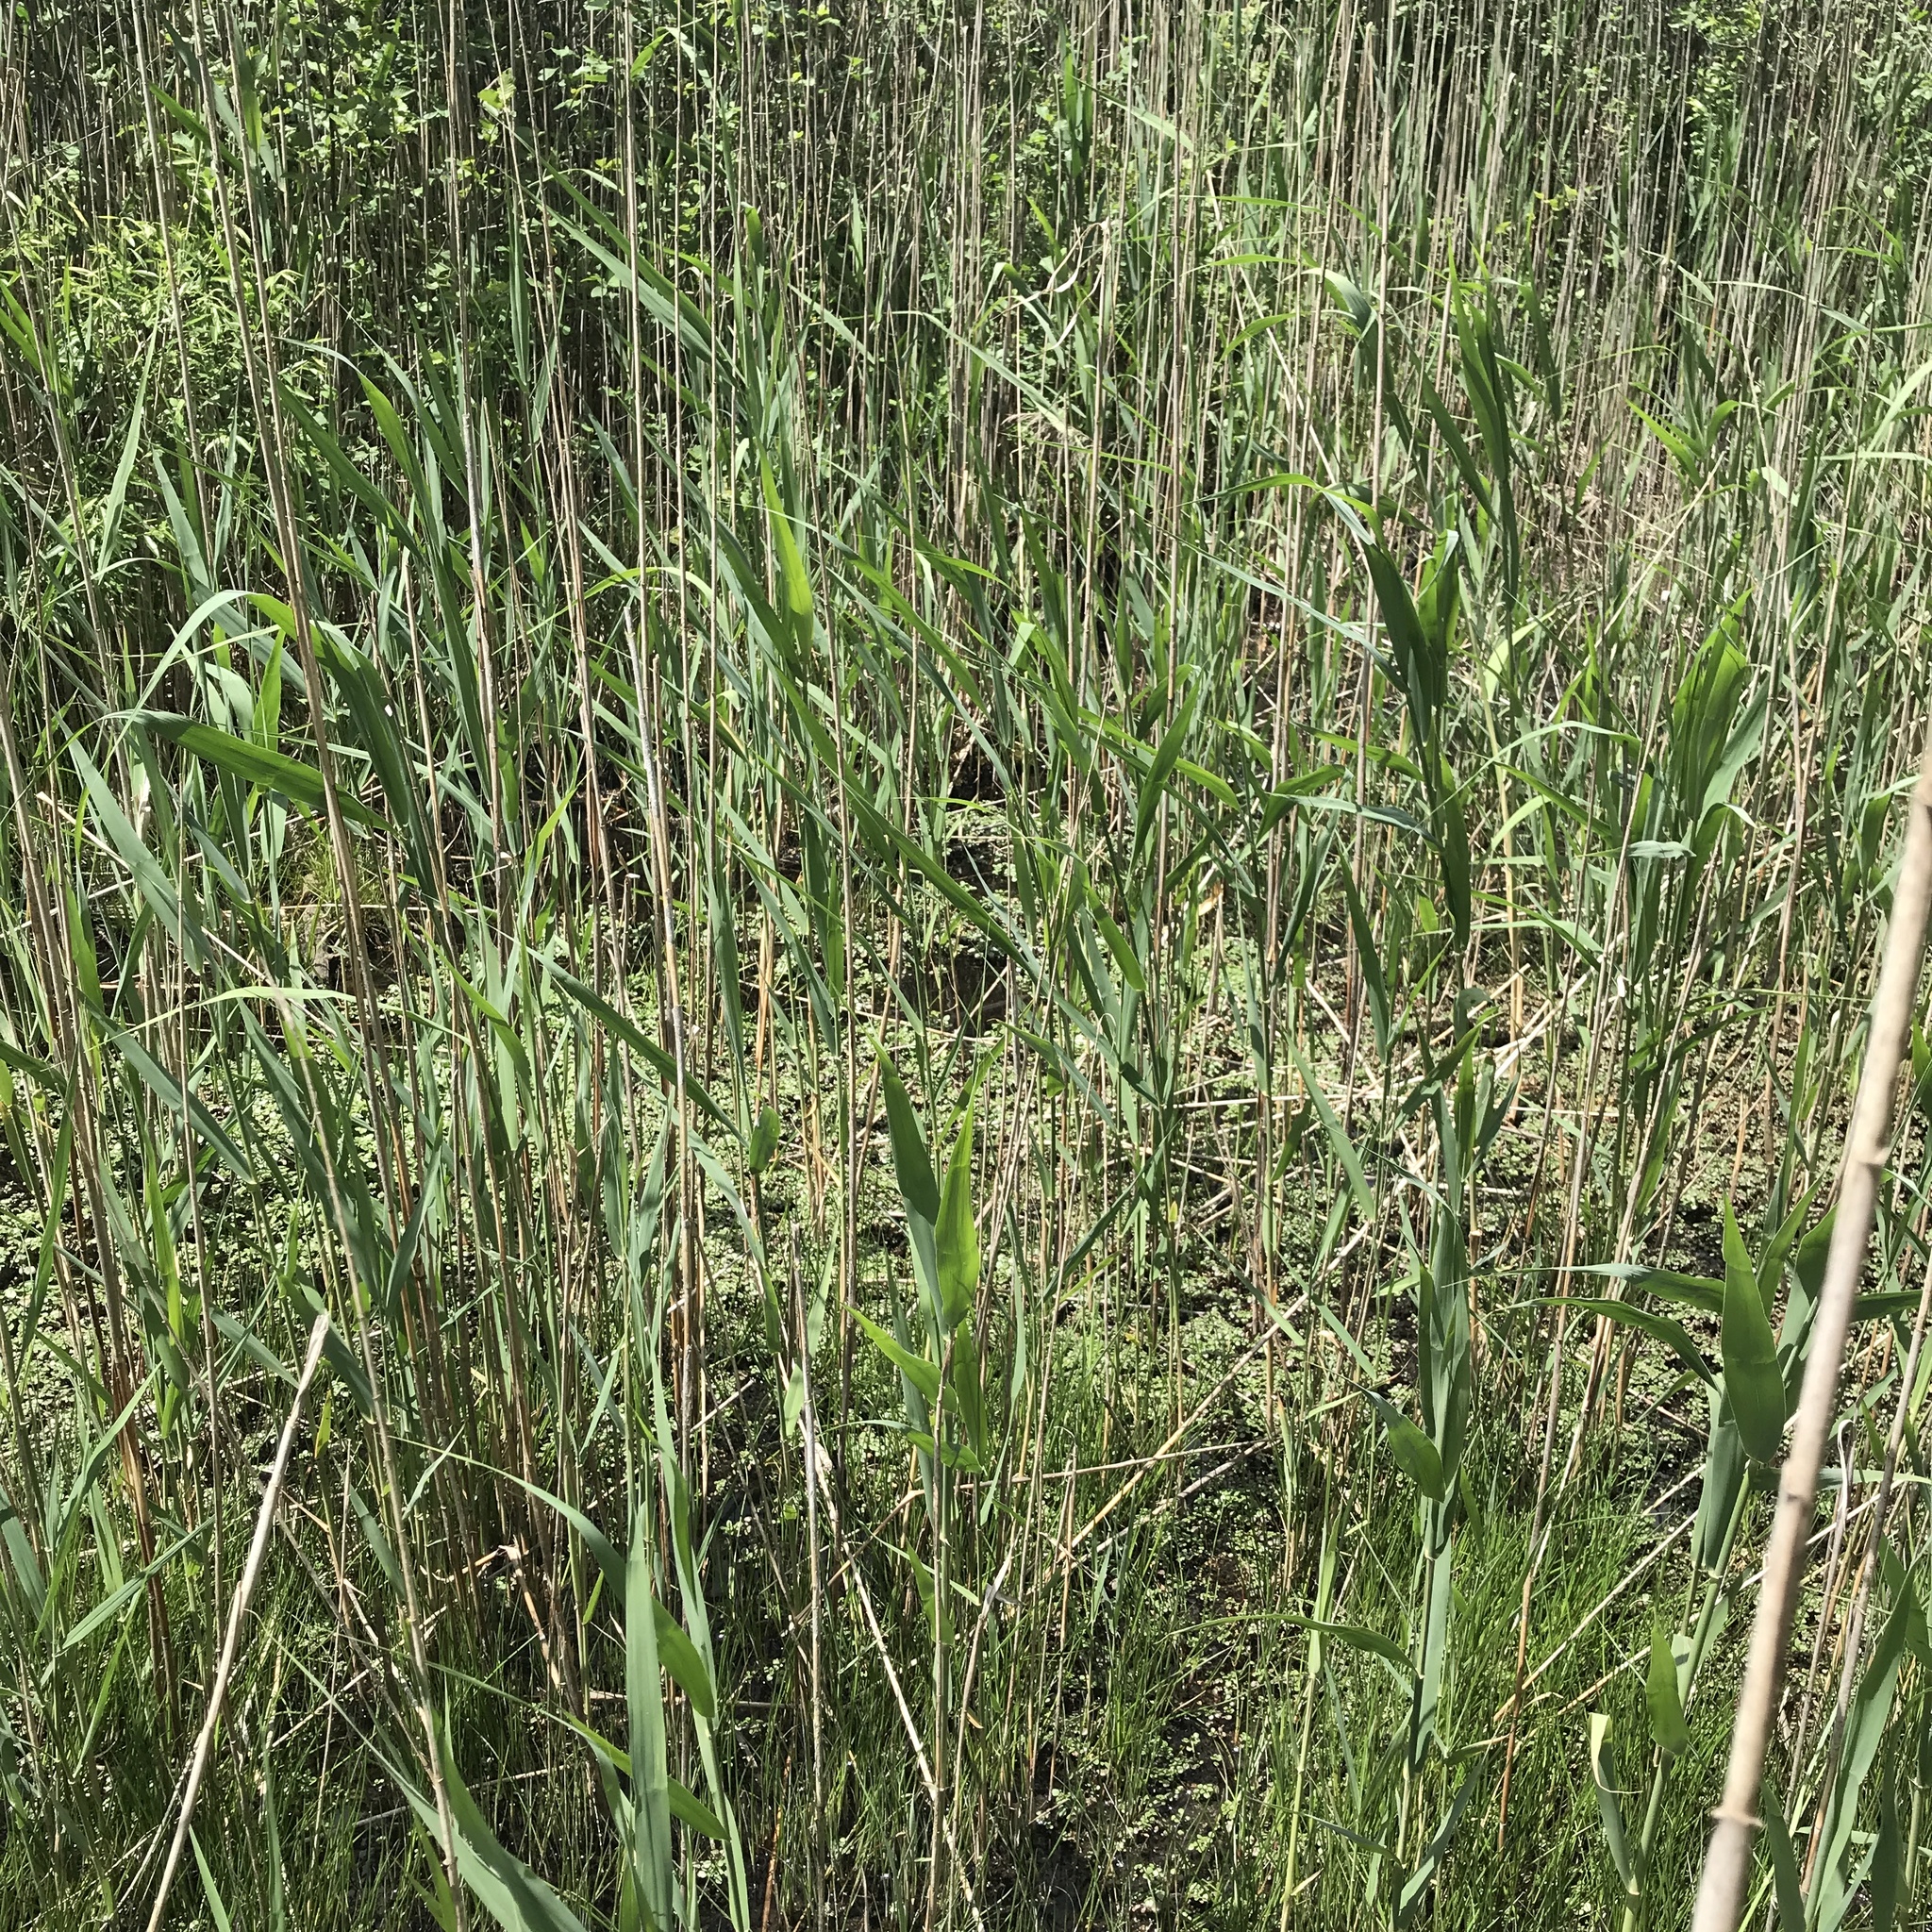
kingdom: Plantae
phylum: Tracheophyta
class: Liliopsida
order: Poales
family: Poaceae
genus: Phragmites
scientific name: Phragmites australis
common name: Common reed
